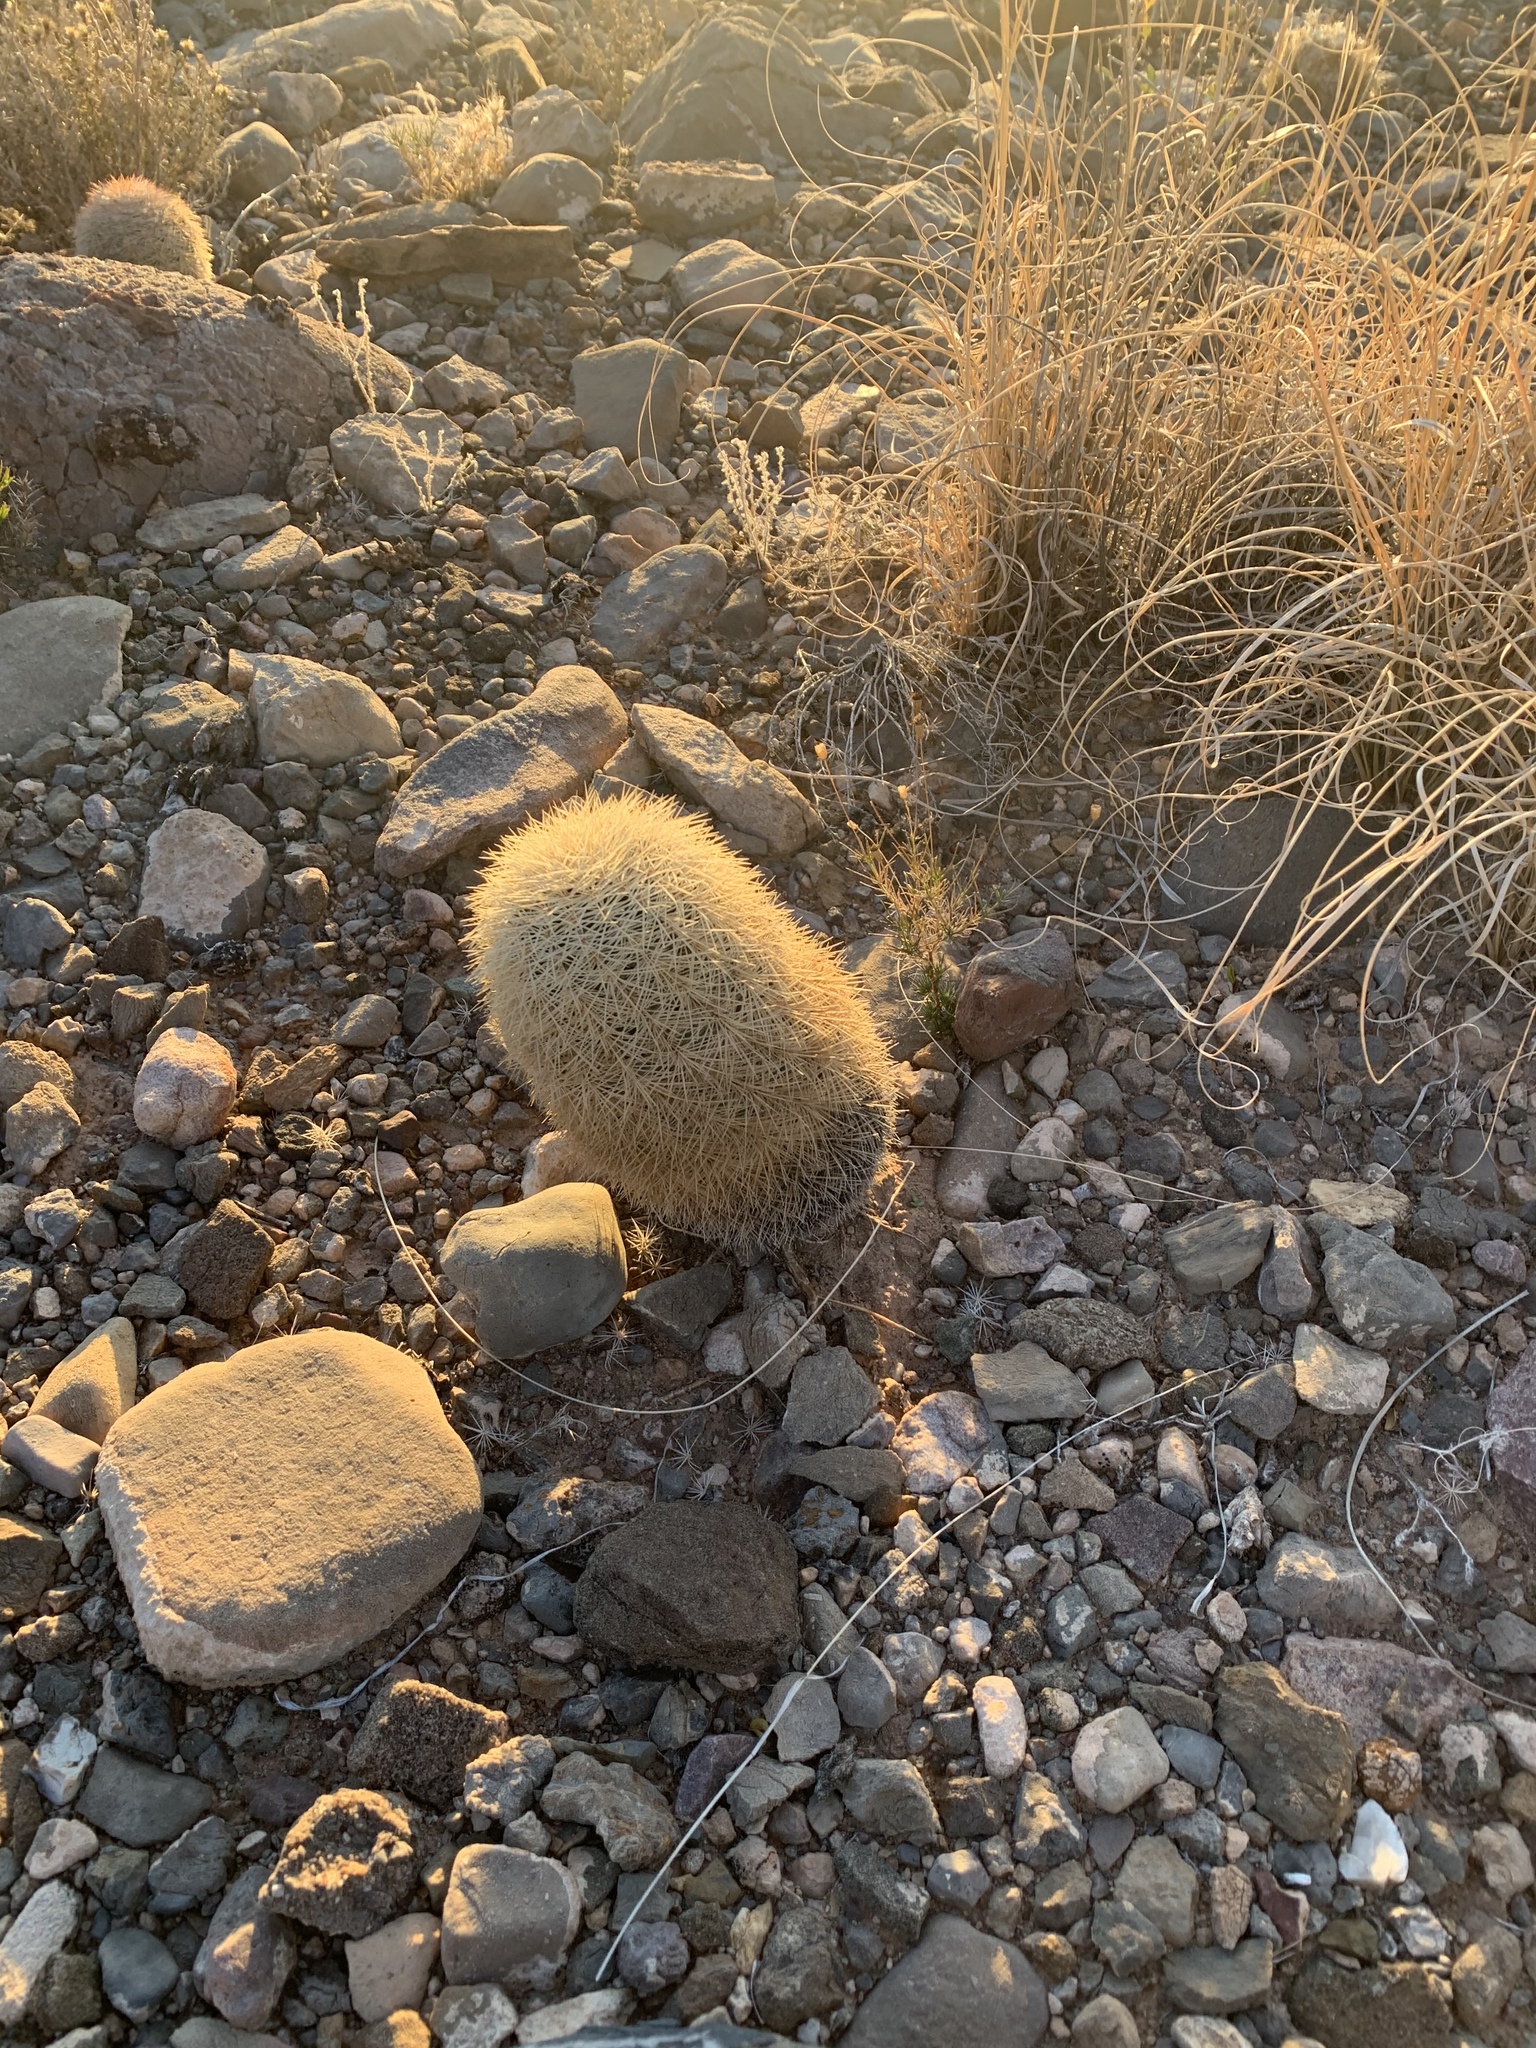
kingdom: Plantae
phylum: Tracheophyta
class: Magnoliopsida
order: Caryophyllales
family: Cactaceae
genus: Echinocereus
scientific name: Echinocereus dasyacanthus
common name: Spiny hedgehog cactus
